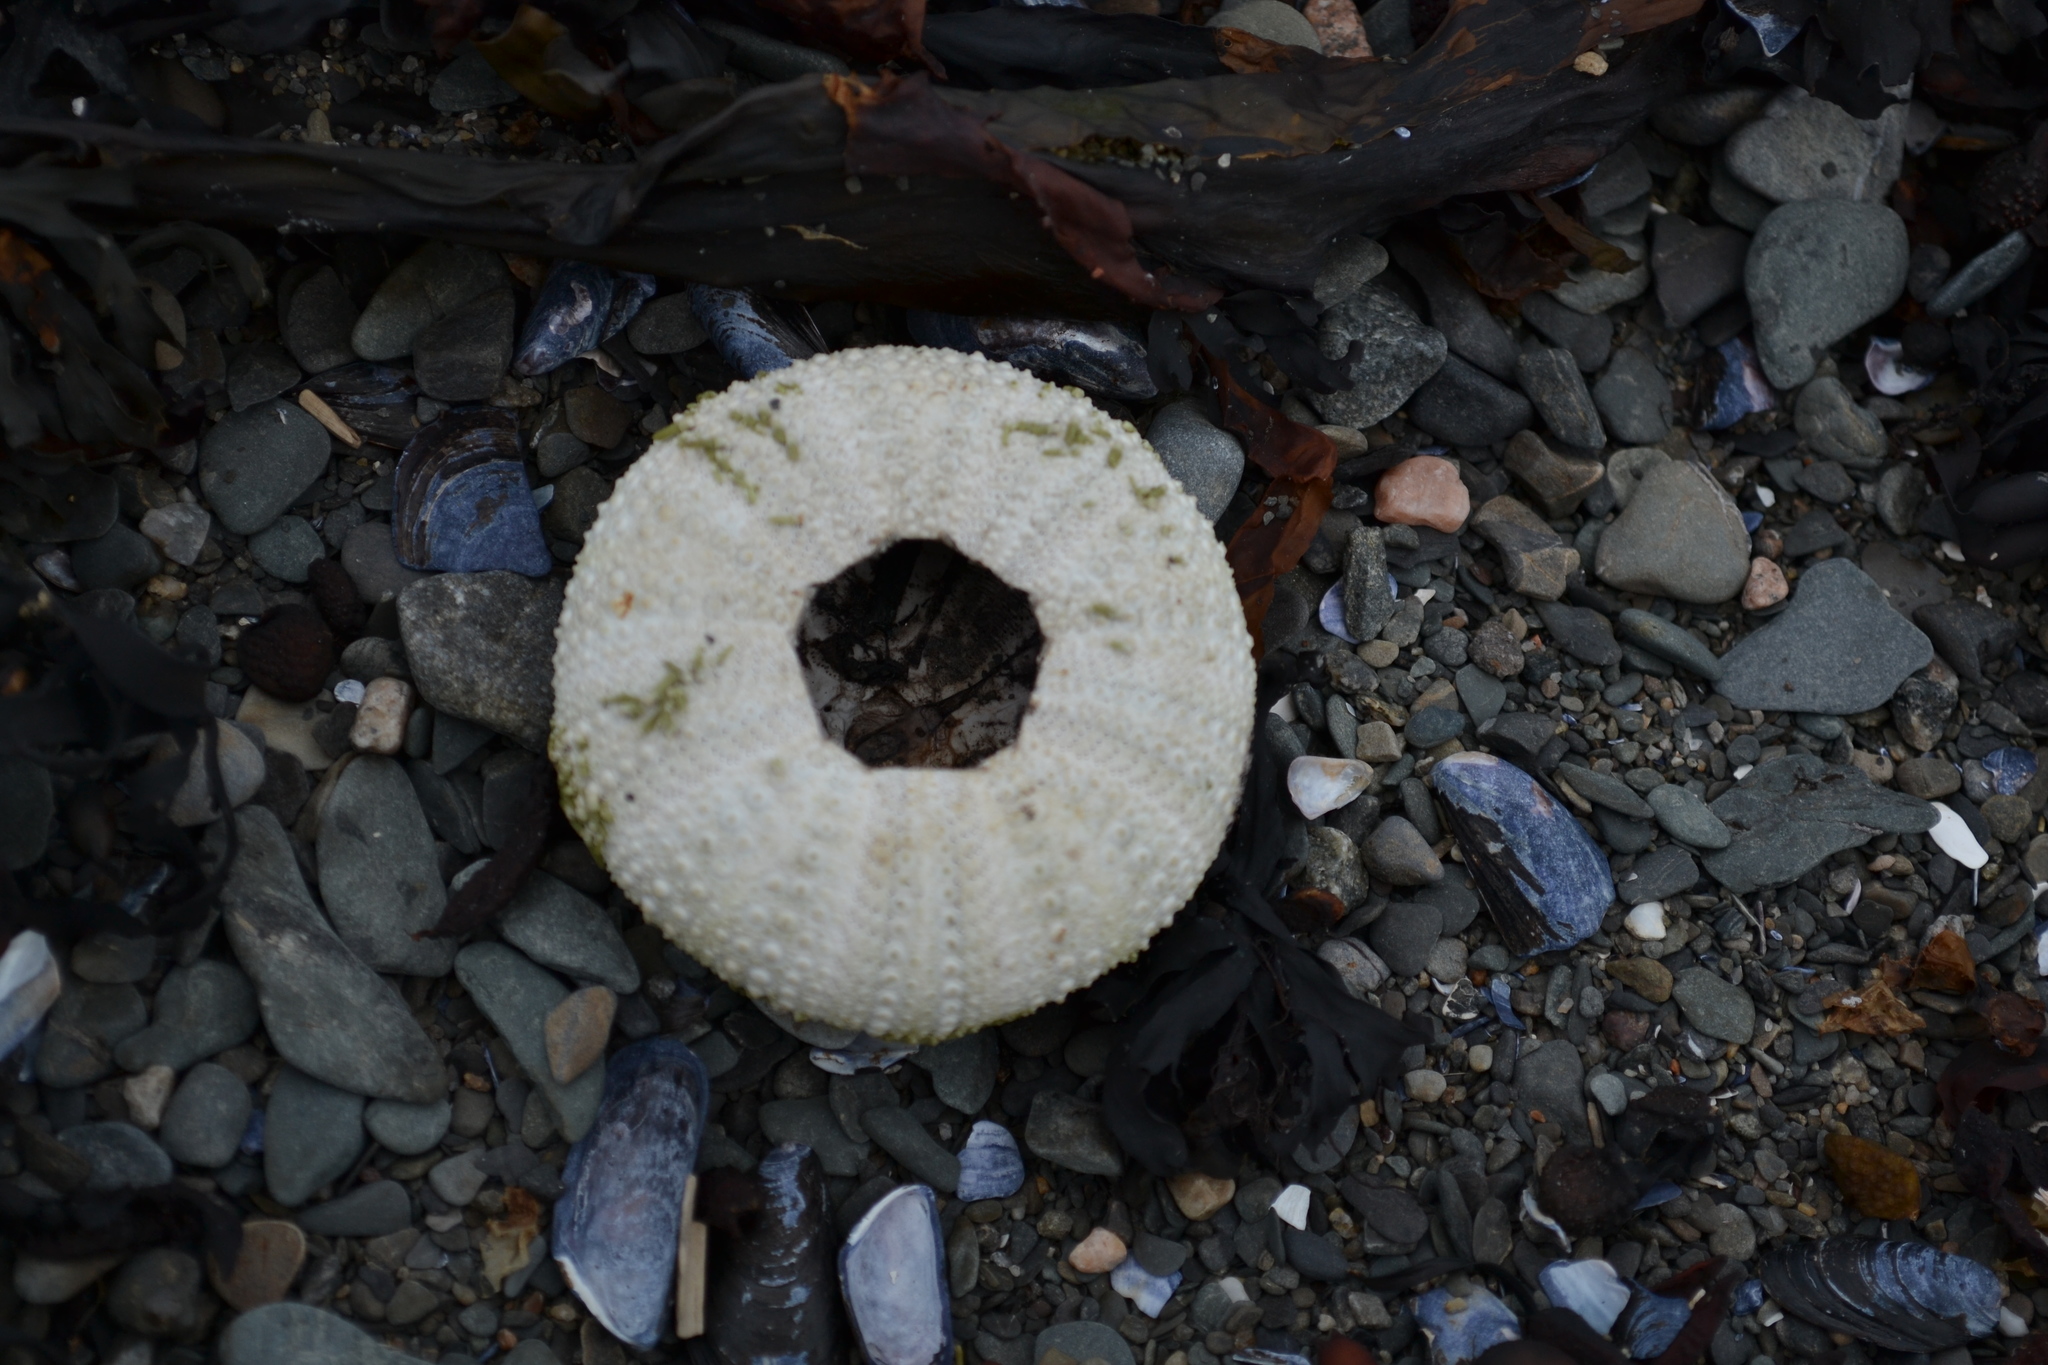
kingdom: Animalia
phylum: Echinodermata
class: Echinoidea
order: Camarodonta
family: Strongylocentrotidae
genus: Strongylocentrotus
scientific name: Strongylocentrotus droebachiensis
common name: Northern sea urchin
